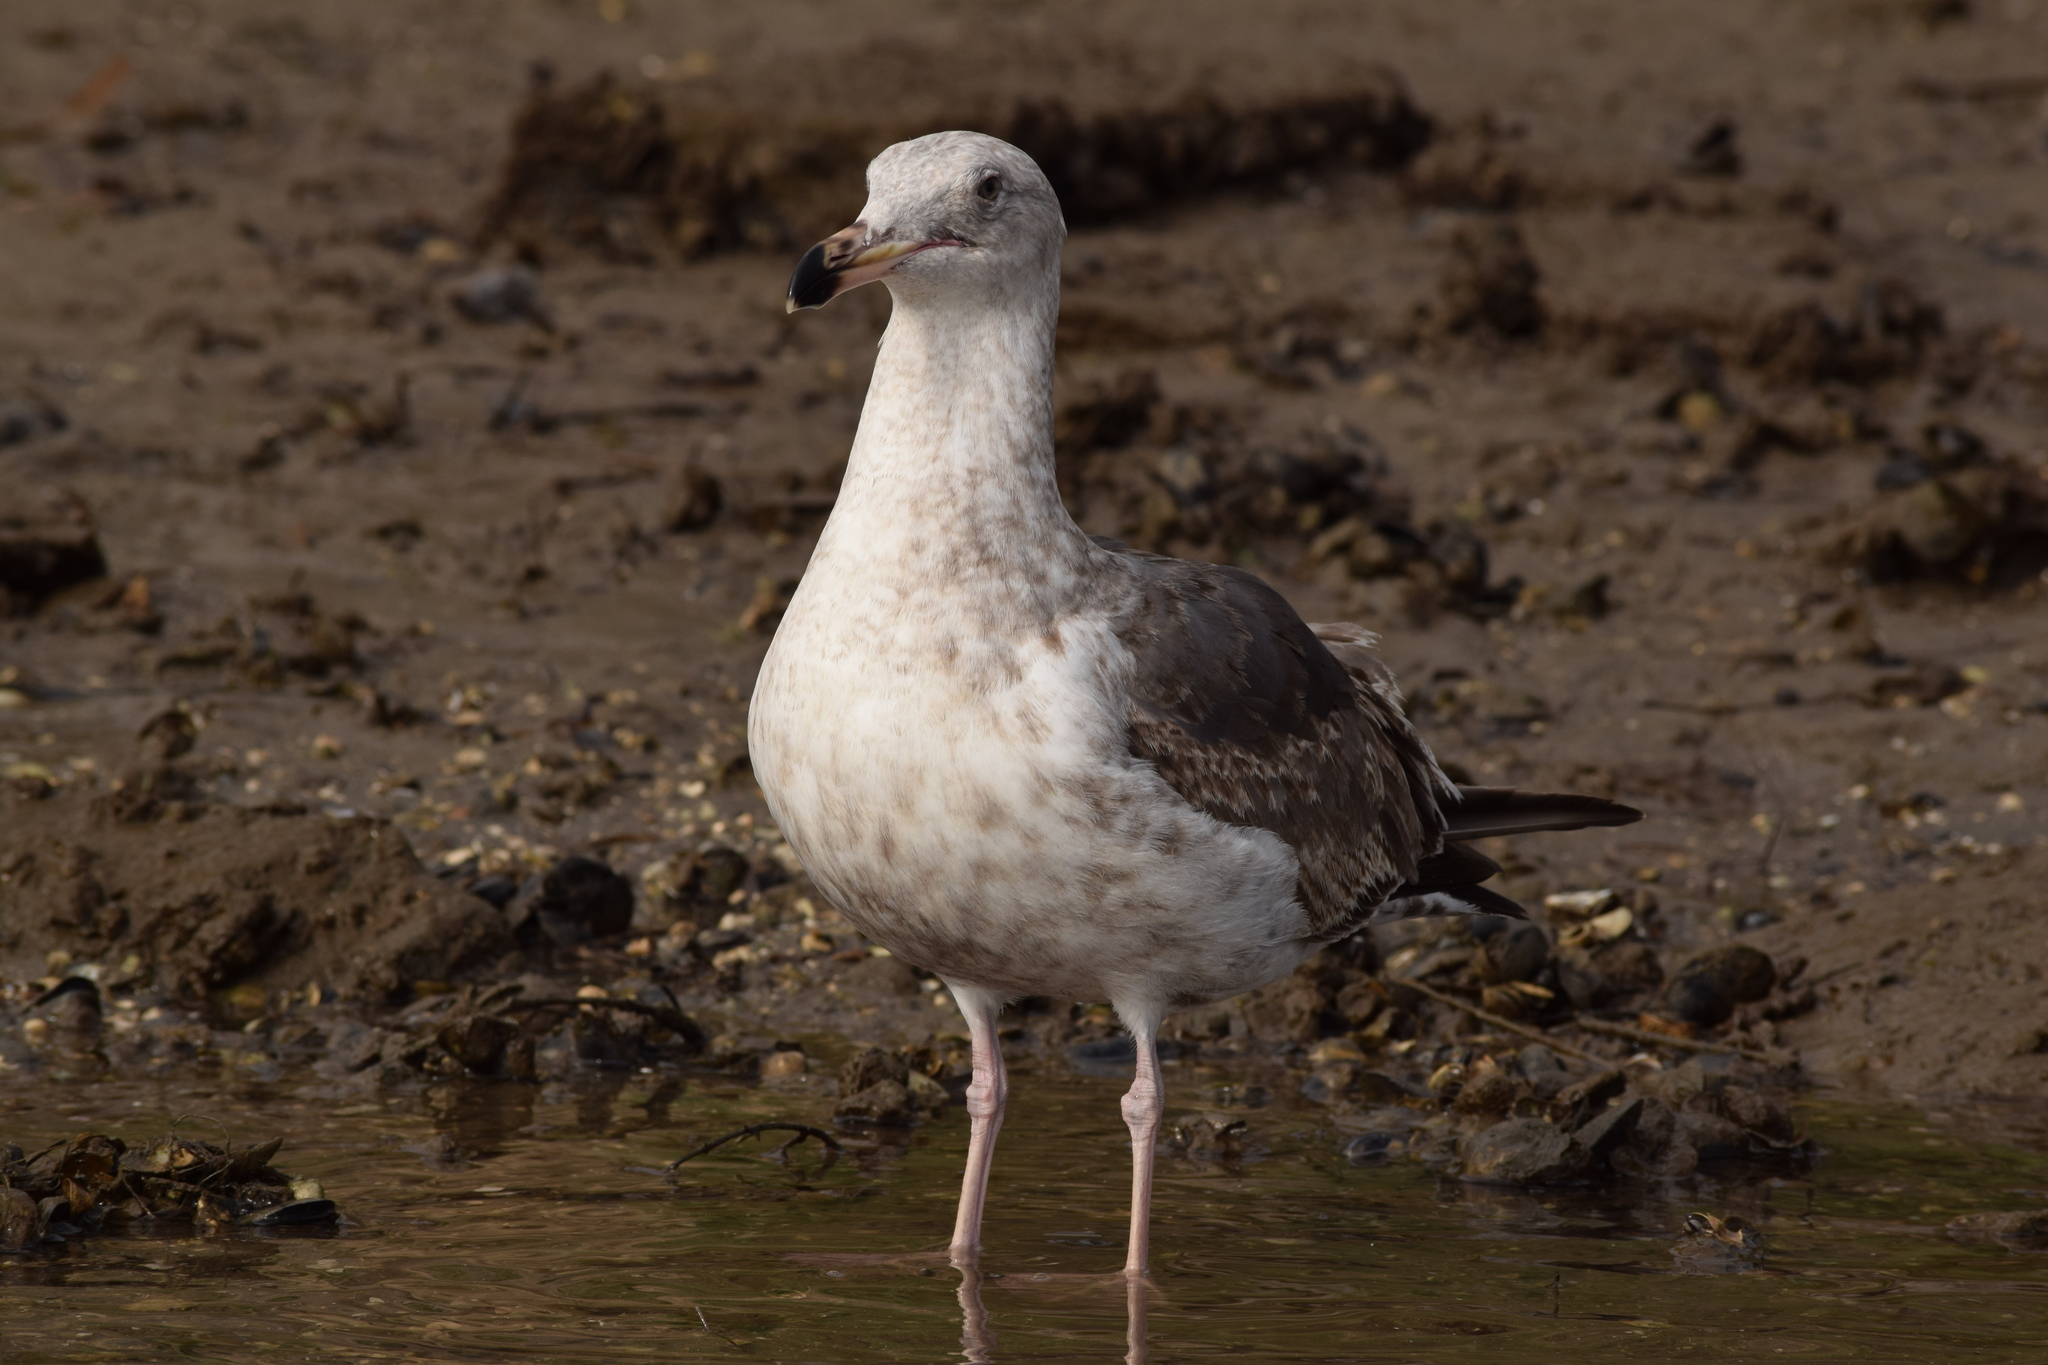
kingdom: Animalia
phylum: Chordata
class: Aves
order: Charadriiformes
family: Laridae
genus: Larus
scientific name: Larus occidentalis
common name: Western gull
